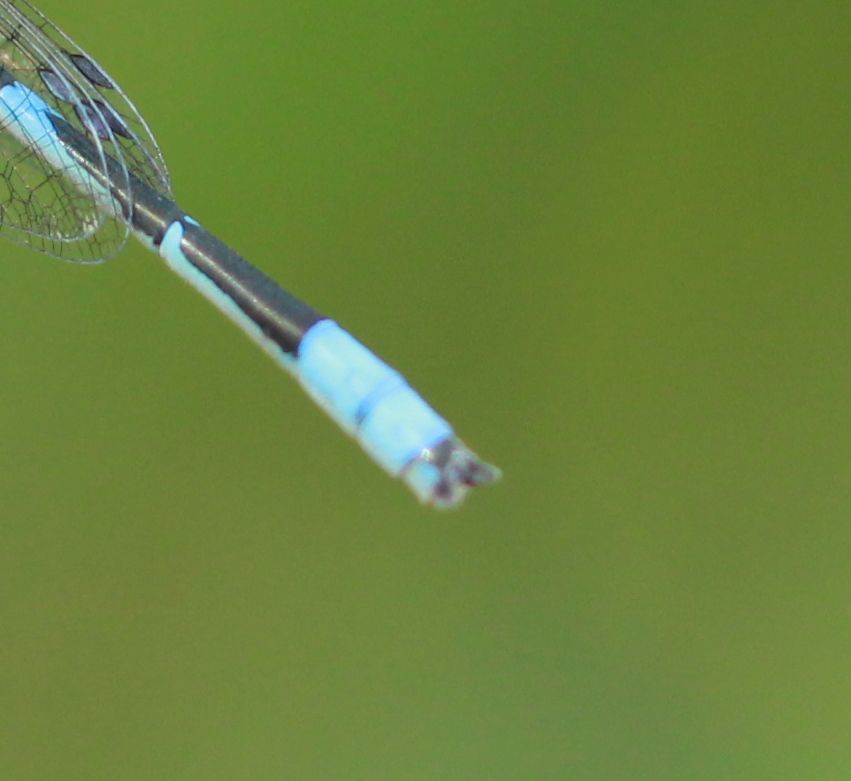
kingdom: Animalia
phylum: Arthropoda
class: Insecta
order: Odonata
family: Coenagrionidae
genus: Enallagma
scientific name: Enallagma civile
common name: Damselfly
